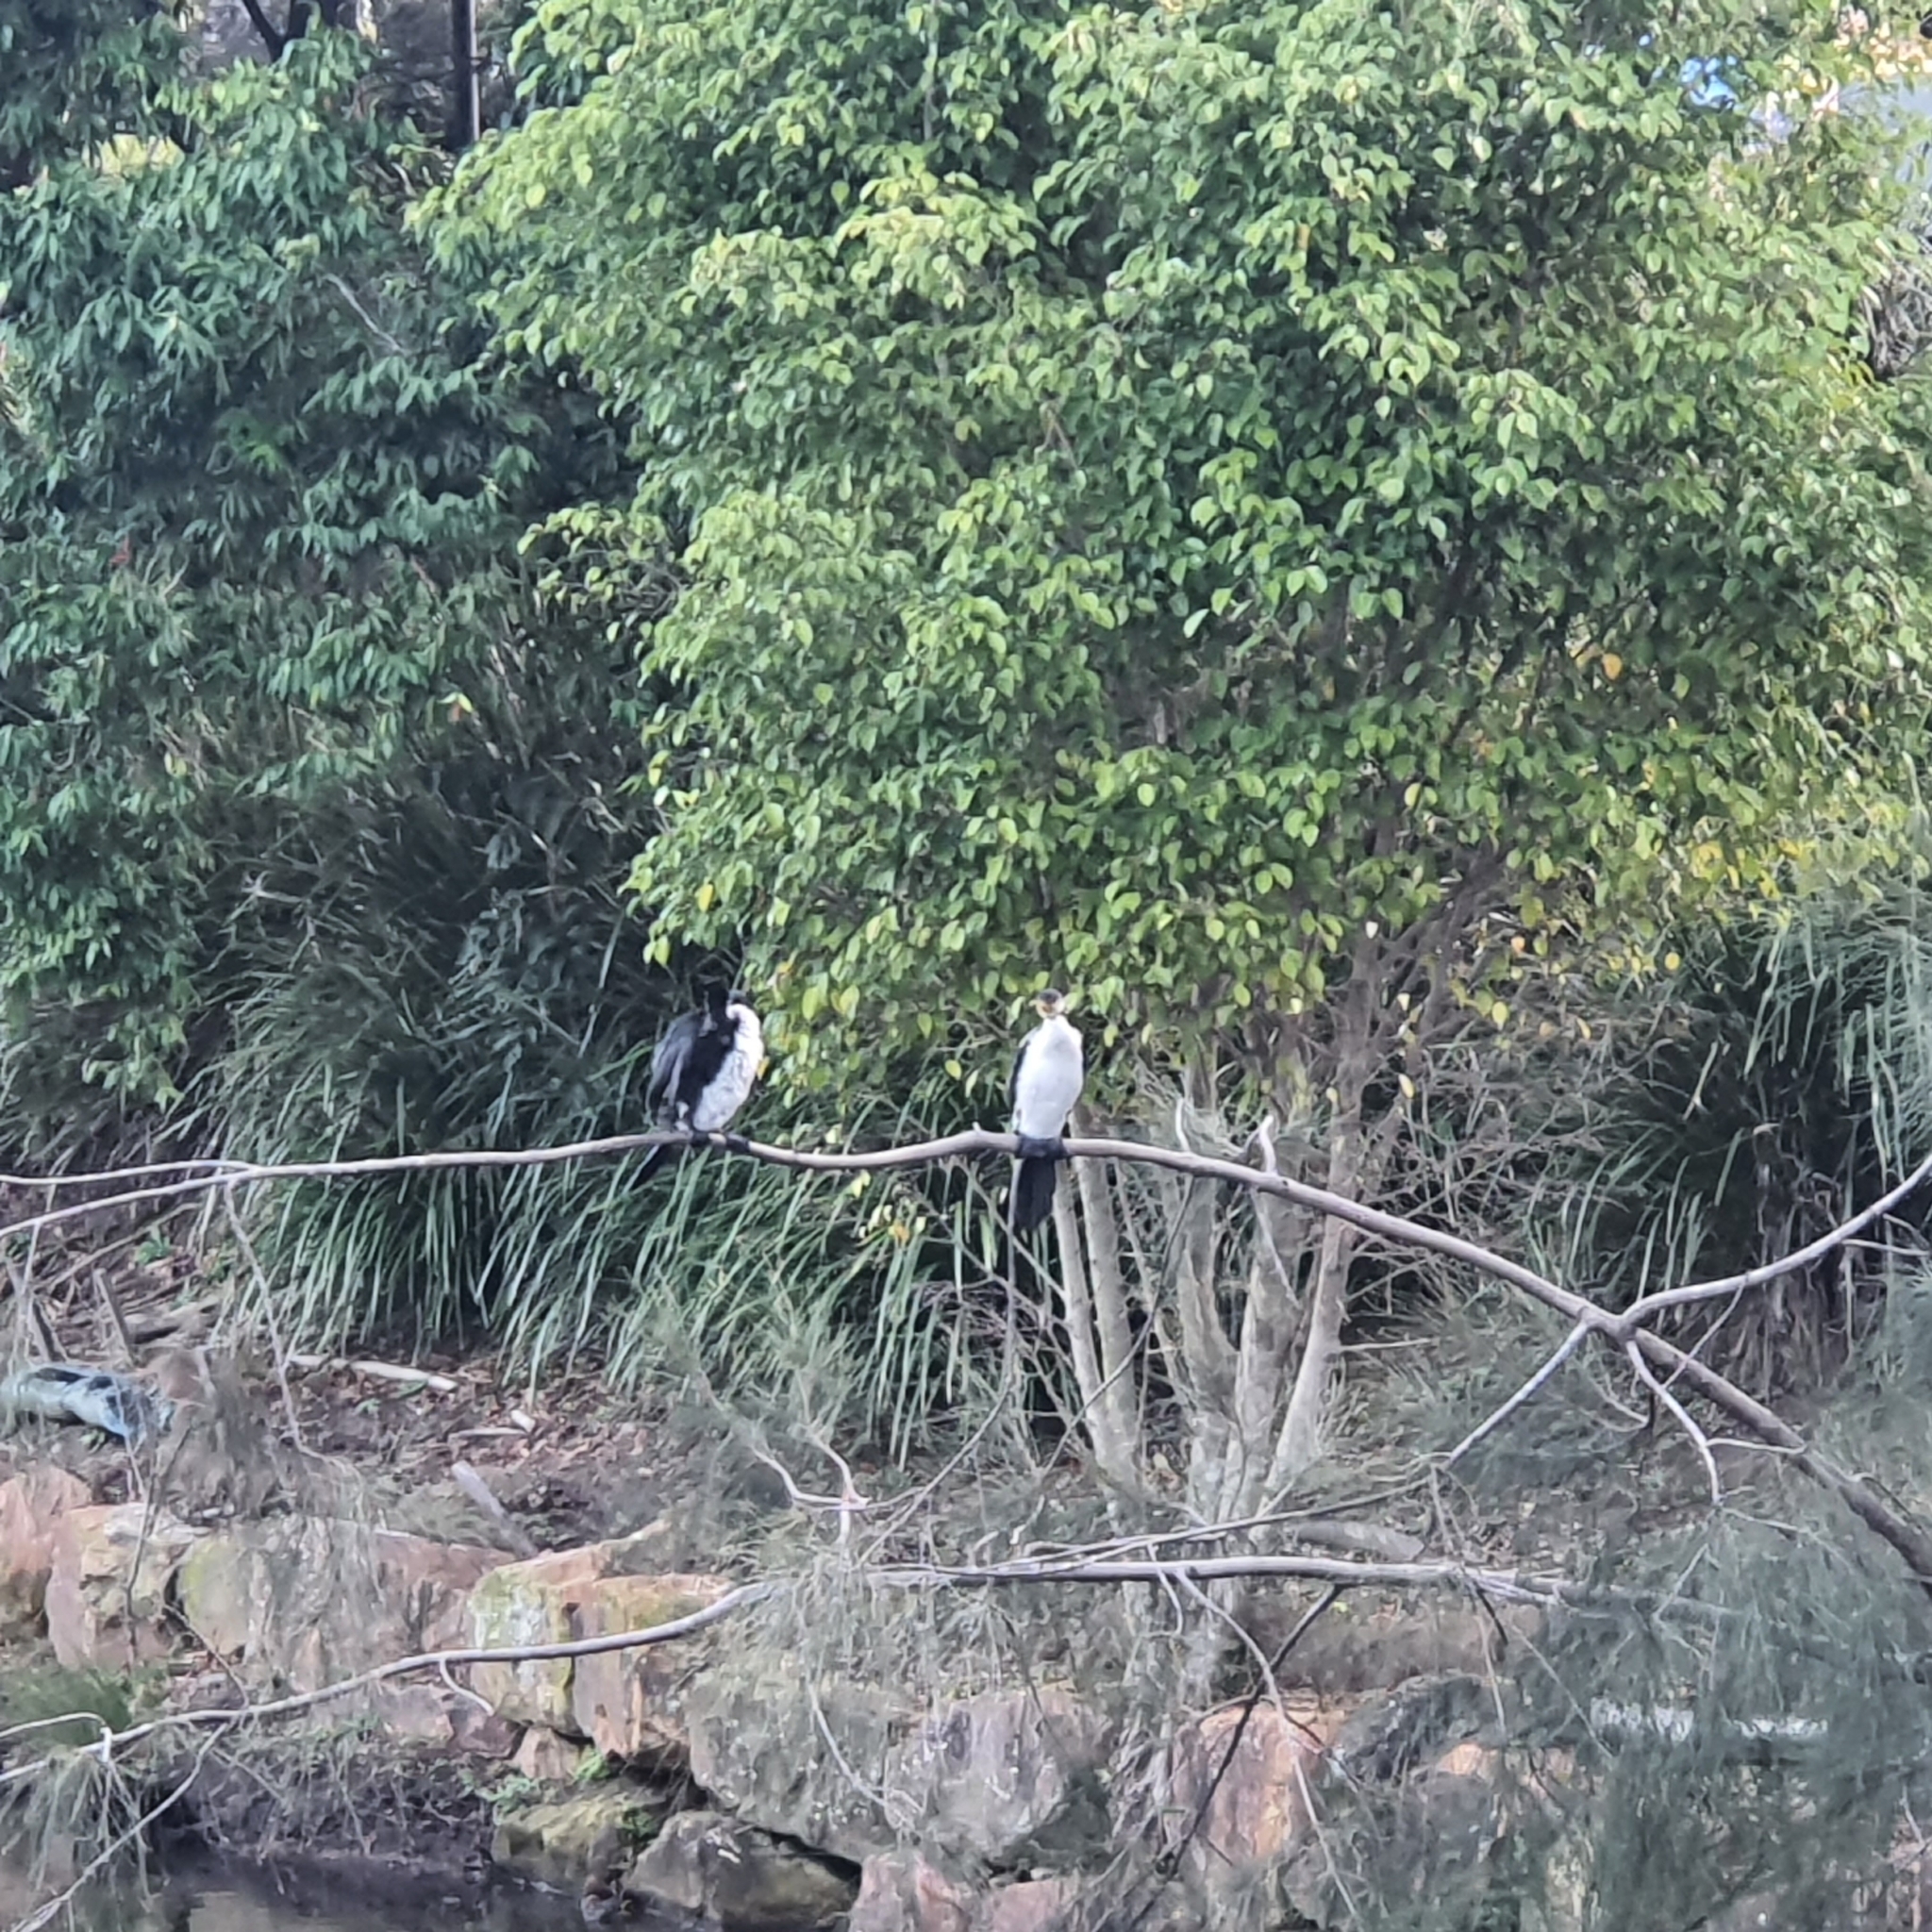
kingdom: Animalia
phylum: Chordata
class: Aves
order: Suliformes
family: Phalacrocoracidae
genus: Microcarbo
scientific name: Microcarbo melanoleucos
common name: Little pied cormorant
